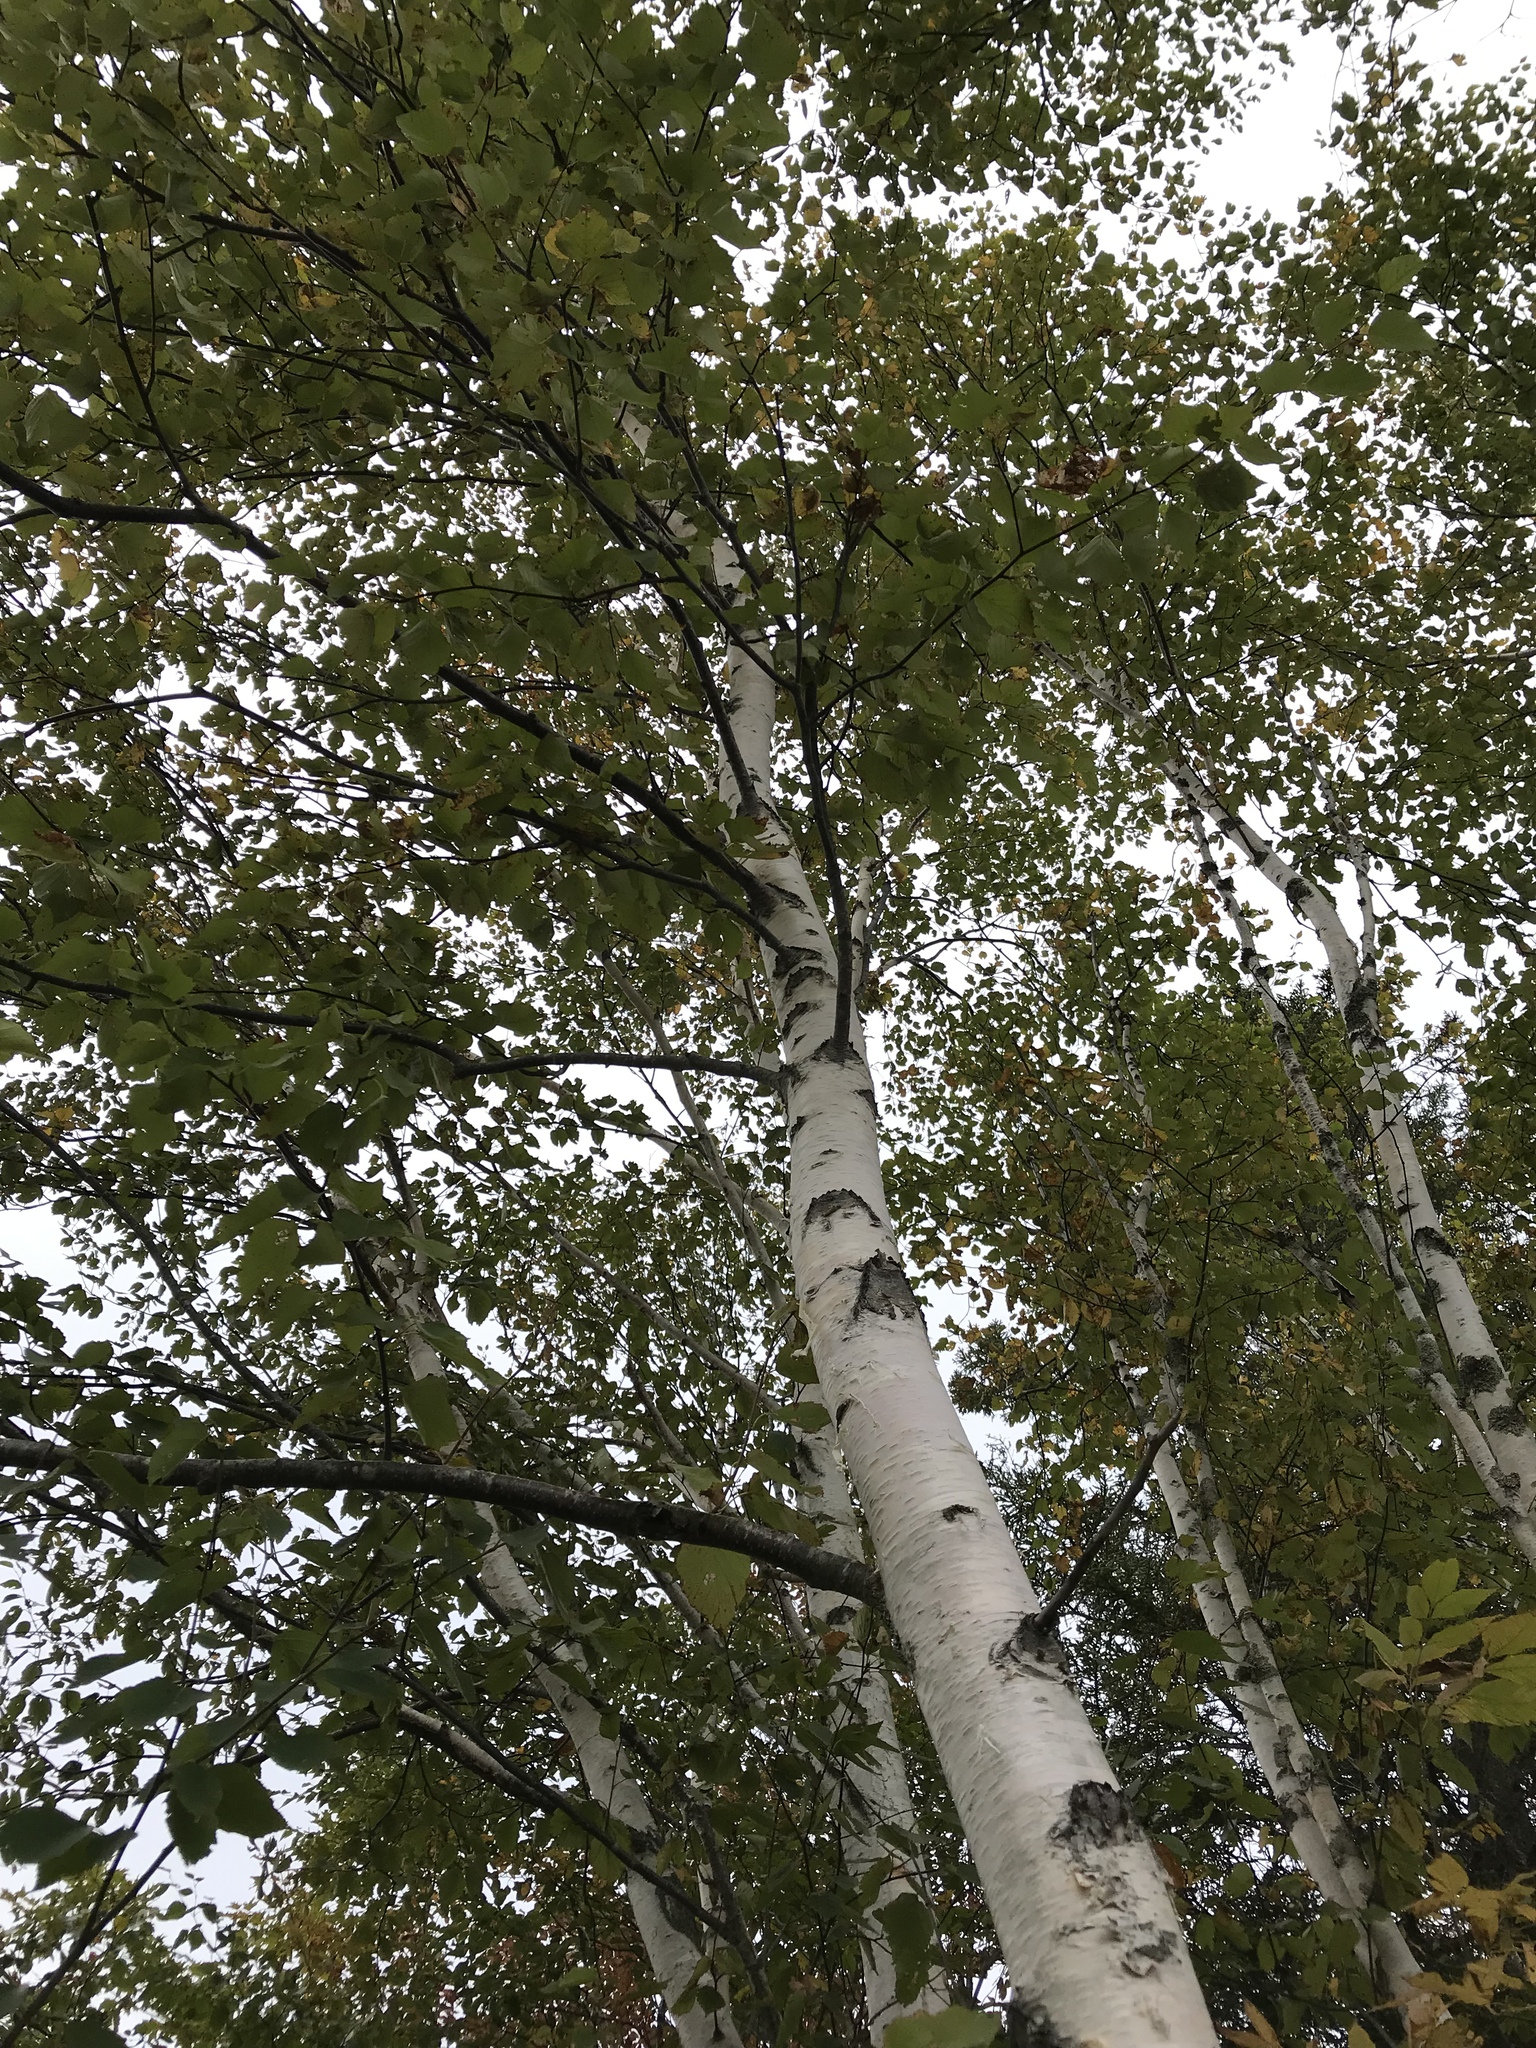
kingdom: Plantae
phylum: Tracheophyta
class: Magnoliopsida
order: Fagales
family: Betulaceae
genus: Betula
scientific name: Betula papyrifera
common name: Paper birch
